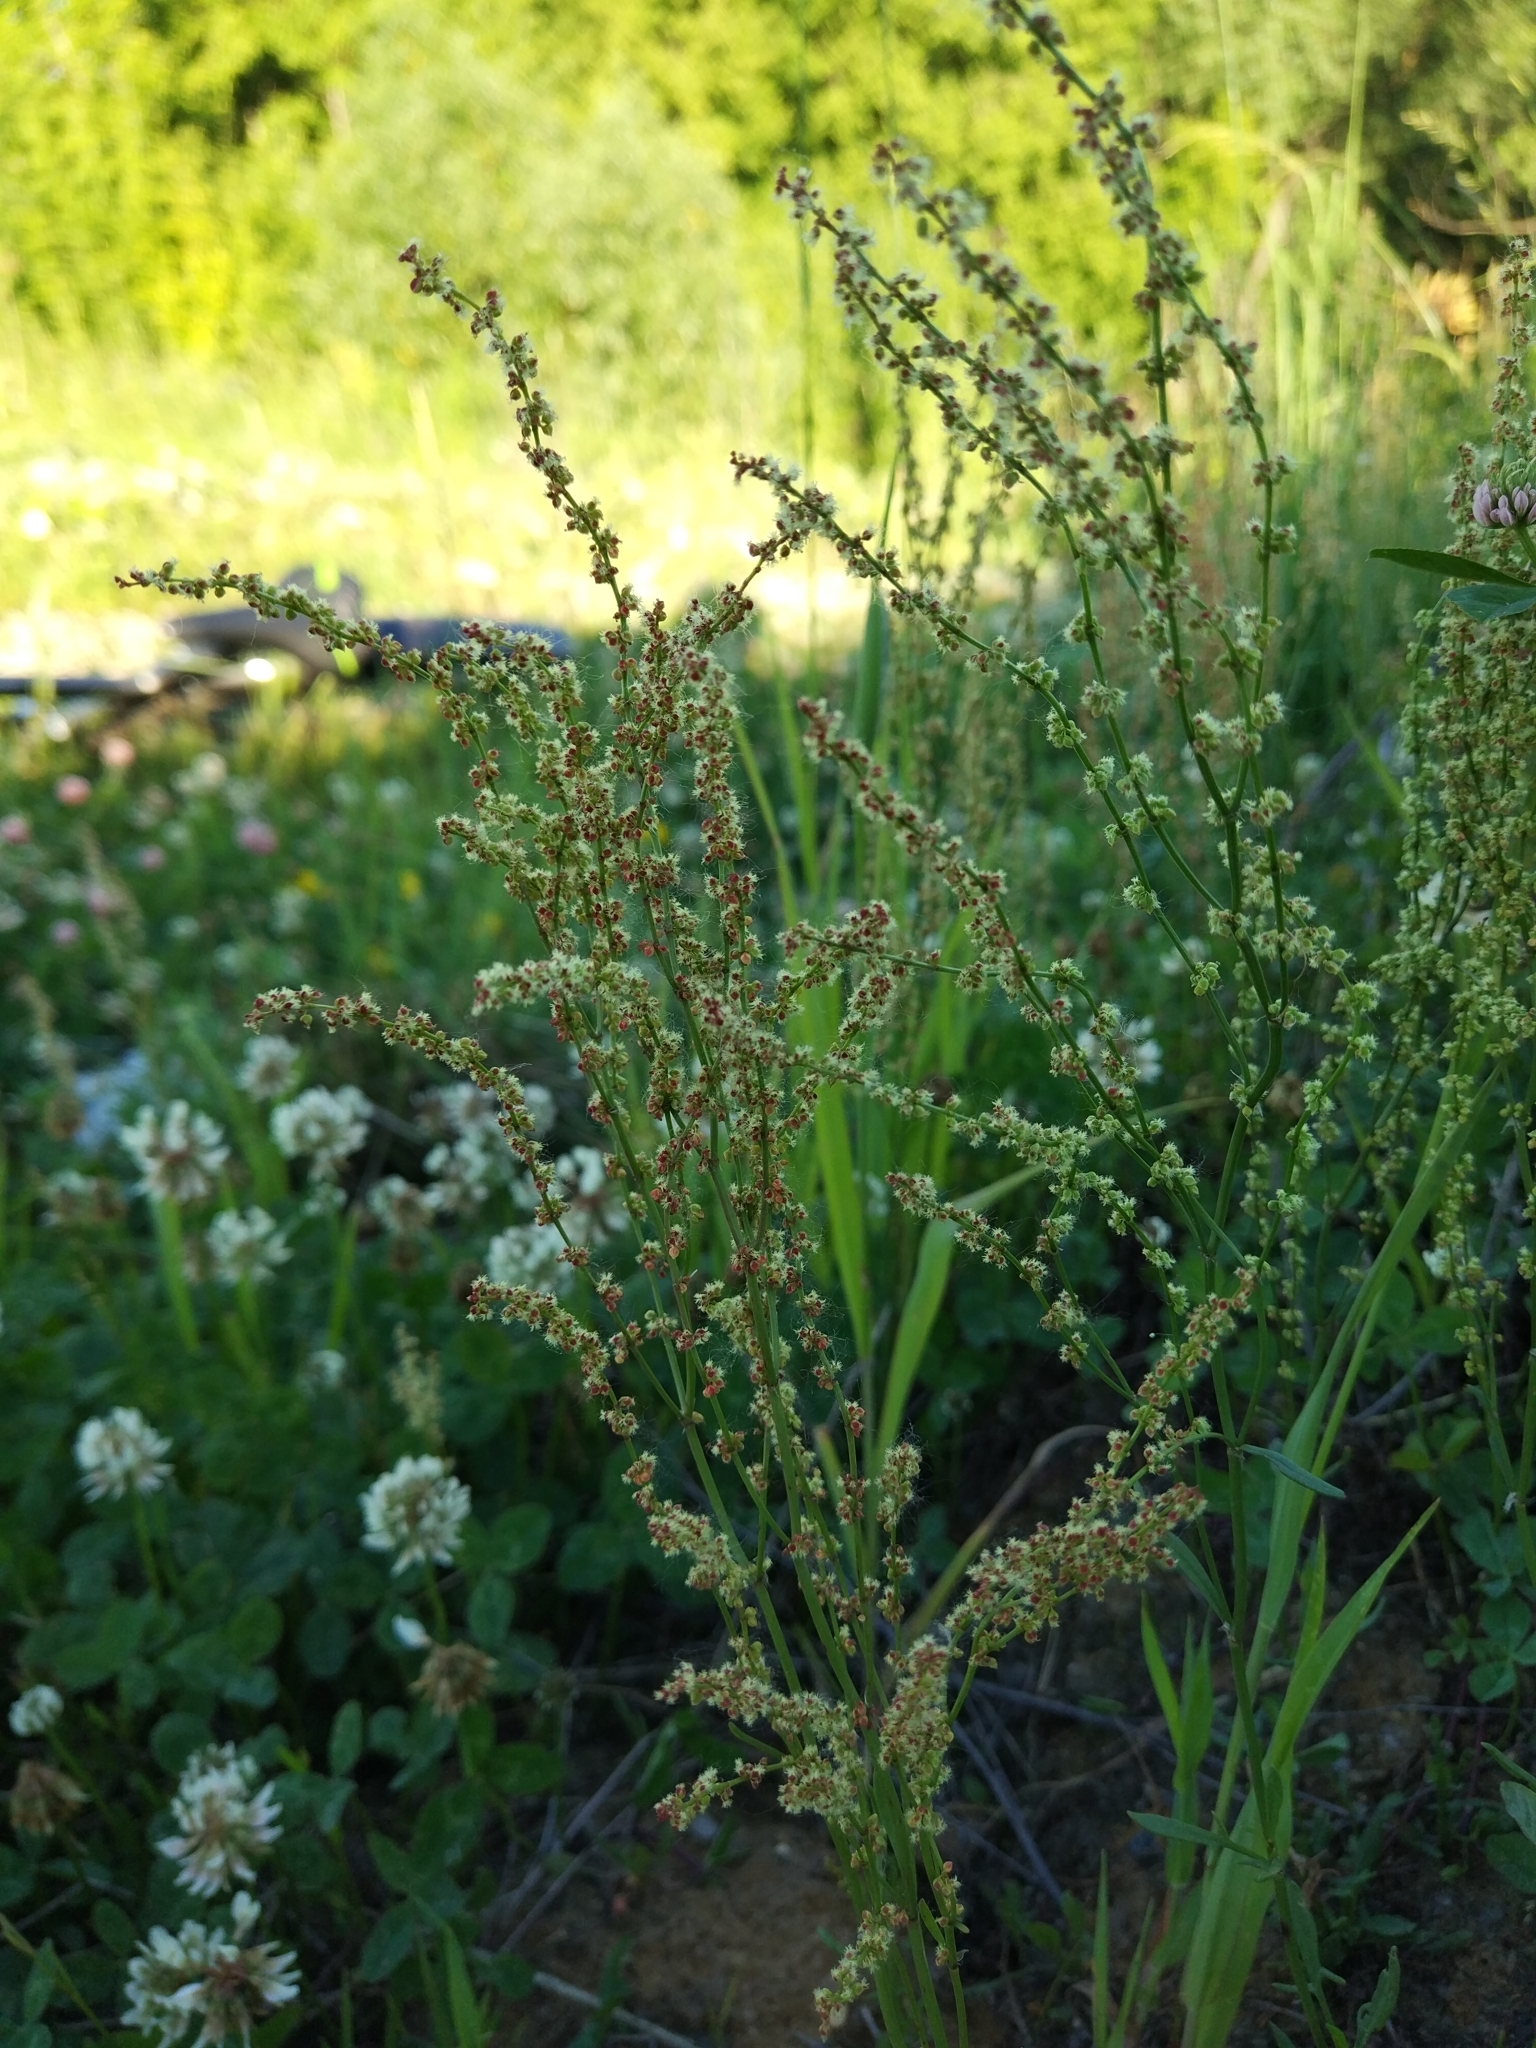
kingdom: Plantae
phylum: Tracheophyta
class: Magnoliopsida
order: Caryophyllales
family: Polygonaceae
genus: Rumex
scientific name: Rumex acetosella
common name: Common sheep sorrel
